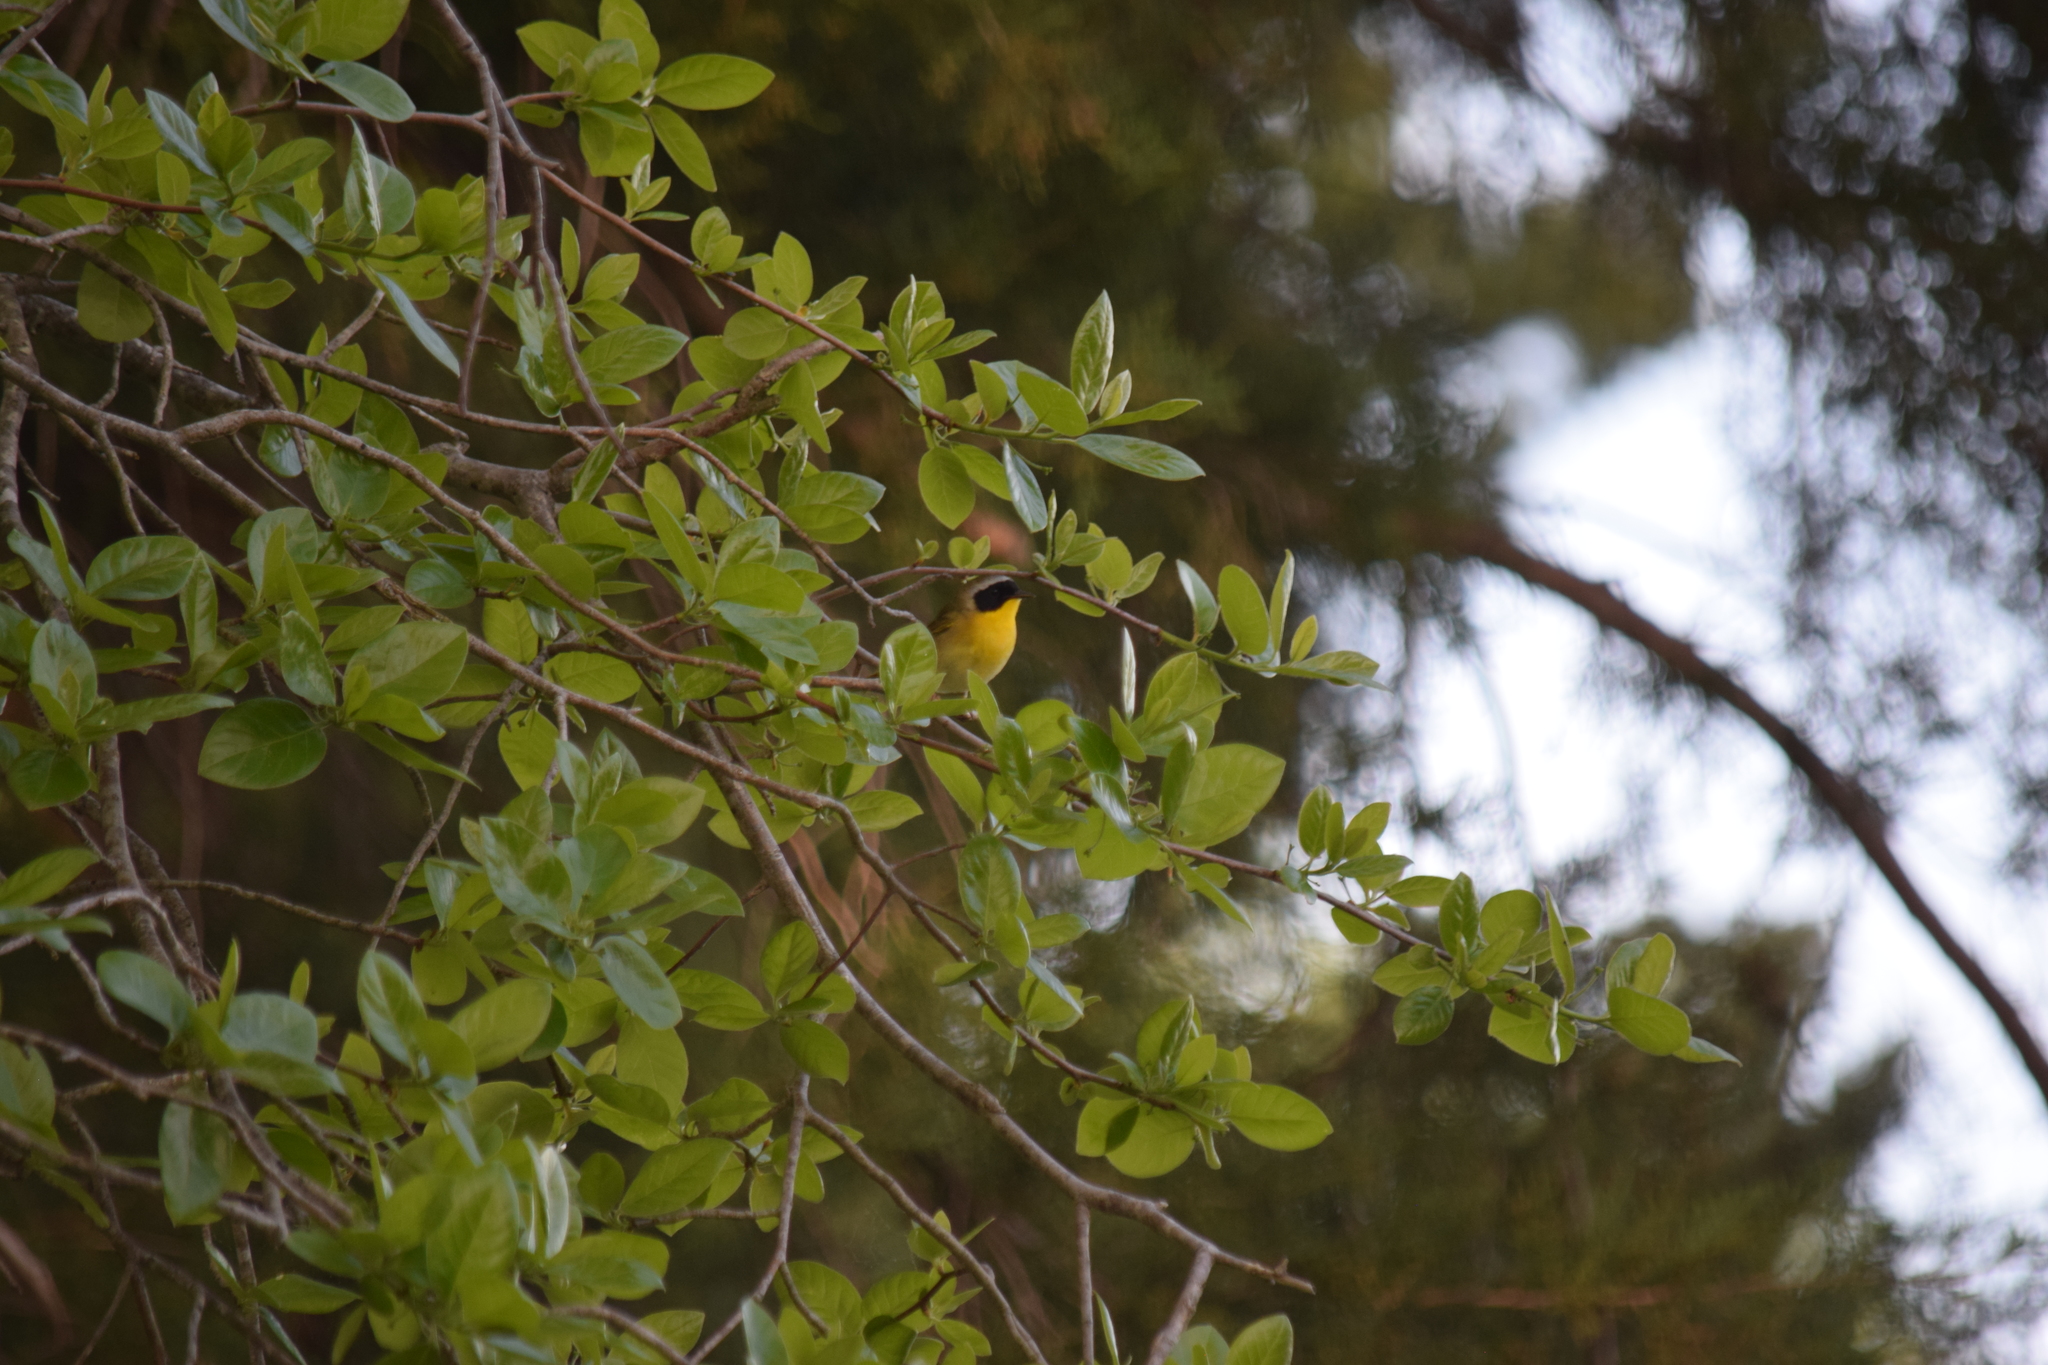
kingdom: Animalia
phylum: Chordata
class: Aves
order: Passeriformes
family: Parulidae
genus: Geothlypis
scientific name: Geothlypis trichas
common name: Common yellowthroat
